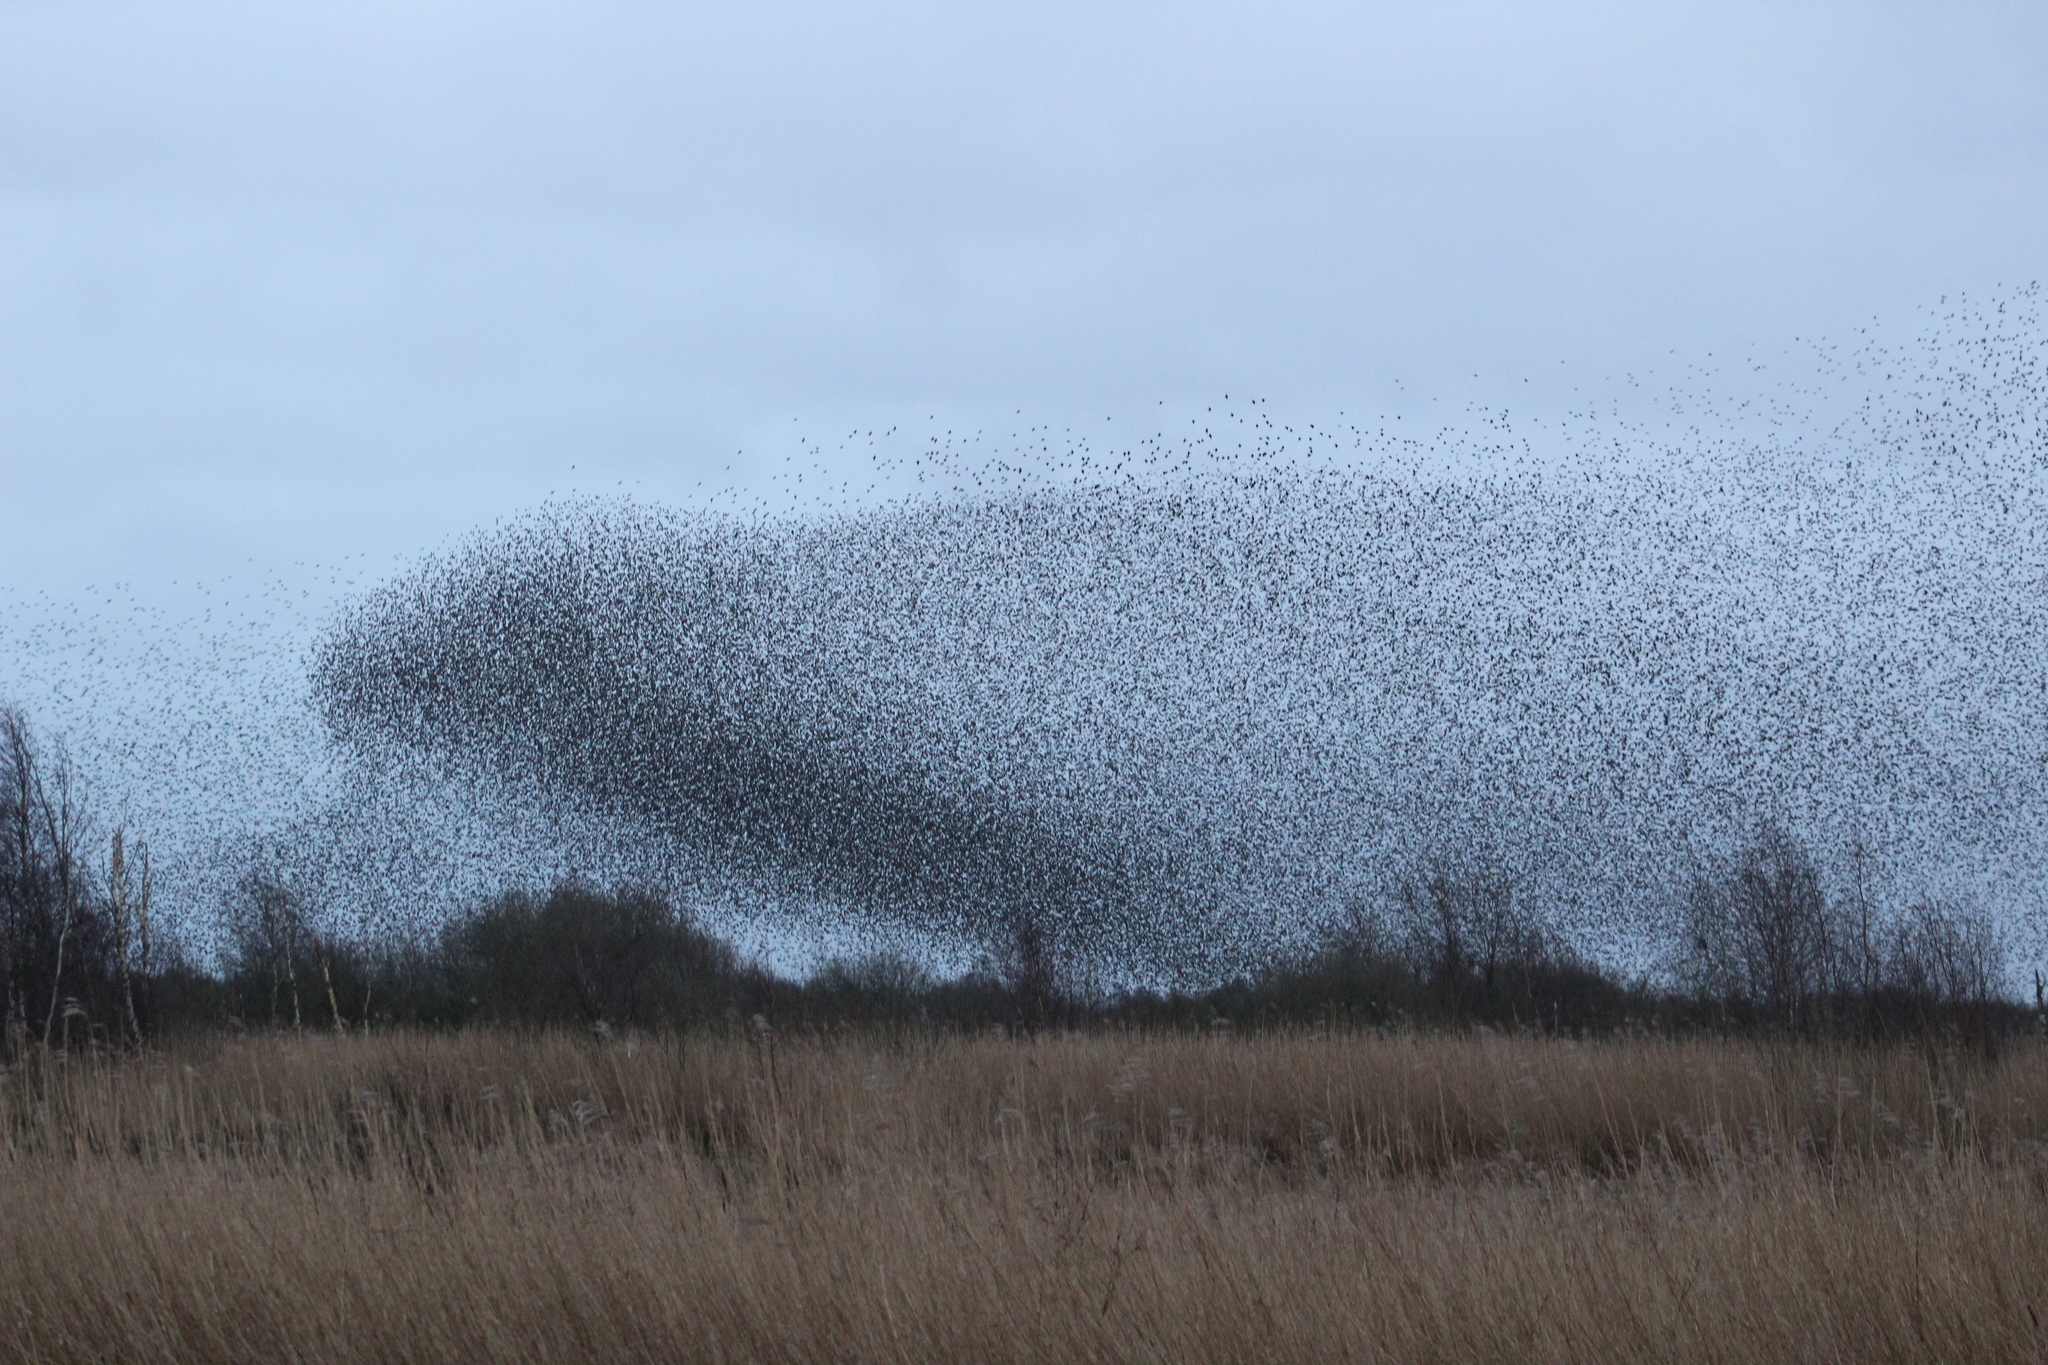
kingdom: Animalia
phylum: Chordata
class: Aves
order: Passeriformes
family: Sturnidae
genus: Sturnus
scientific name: Sturnus vulgaris
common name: Common starling
